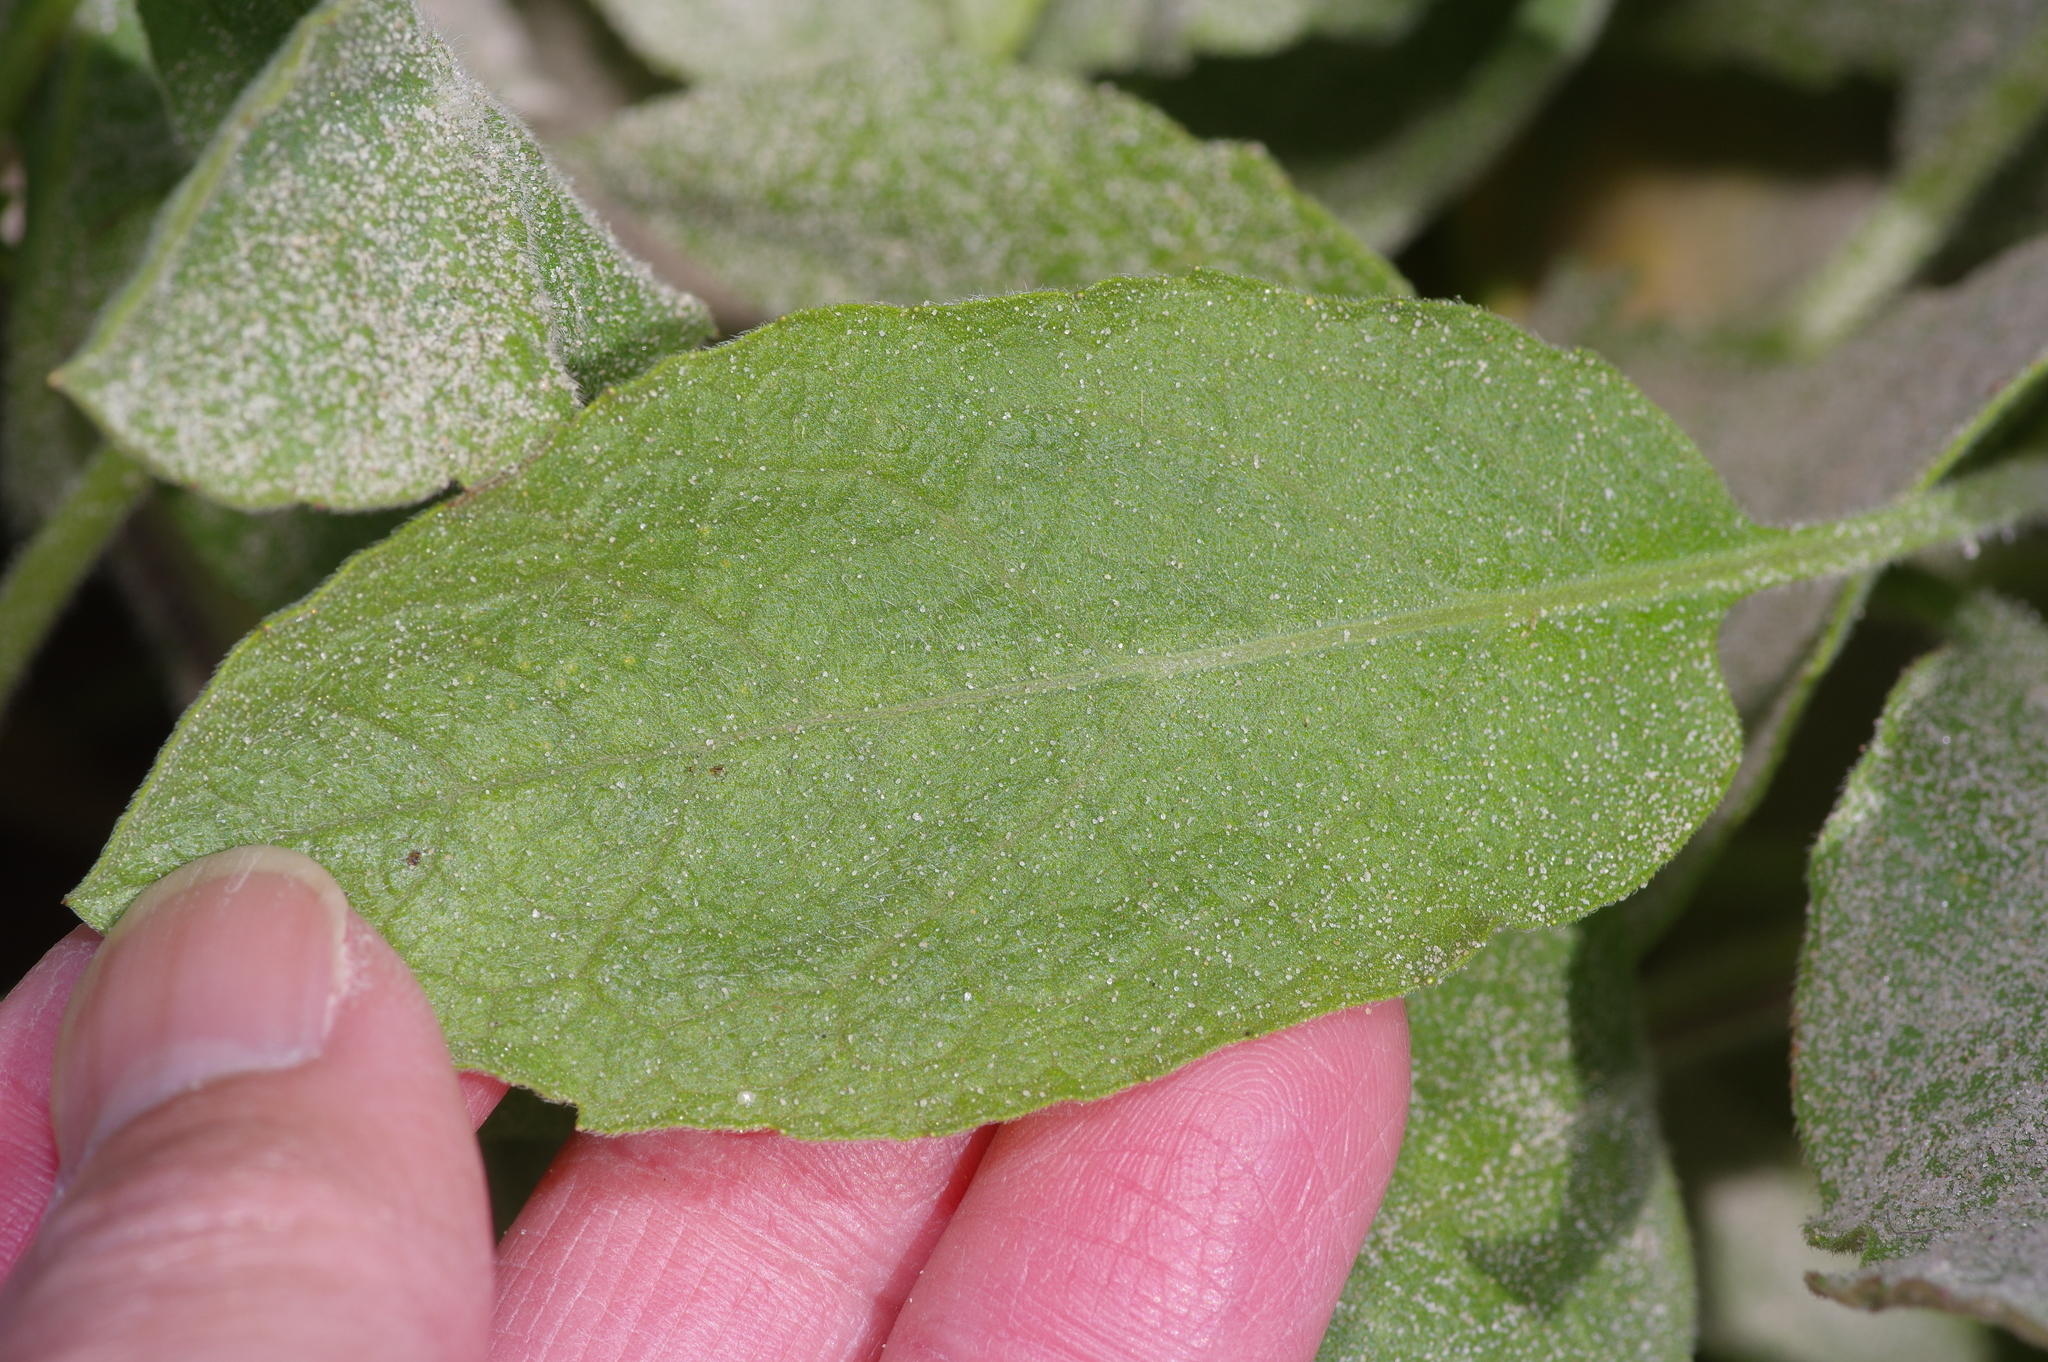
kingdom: Plantae
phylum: Tracheophyta
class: Magnoliopsida
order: Asterales
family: Asteraceae
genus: Heterotheca
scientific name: Heterotheca subaxillaris
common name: Camphorweed
